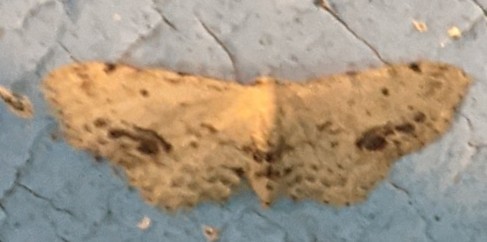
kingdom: Animalia
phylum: Arthropoda
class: Insecta
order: Lepidoptera
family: Geometridae
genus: Idaea
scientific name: Idaea dimidiata
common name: Single-dotted wave
